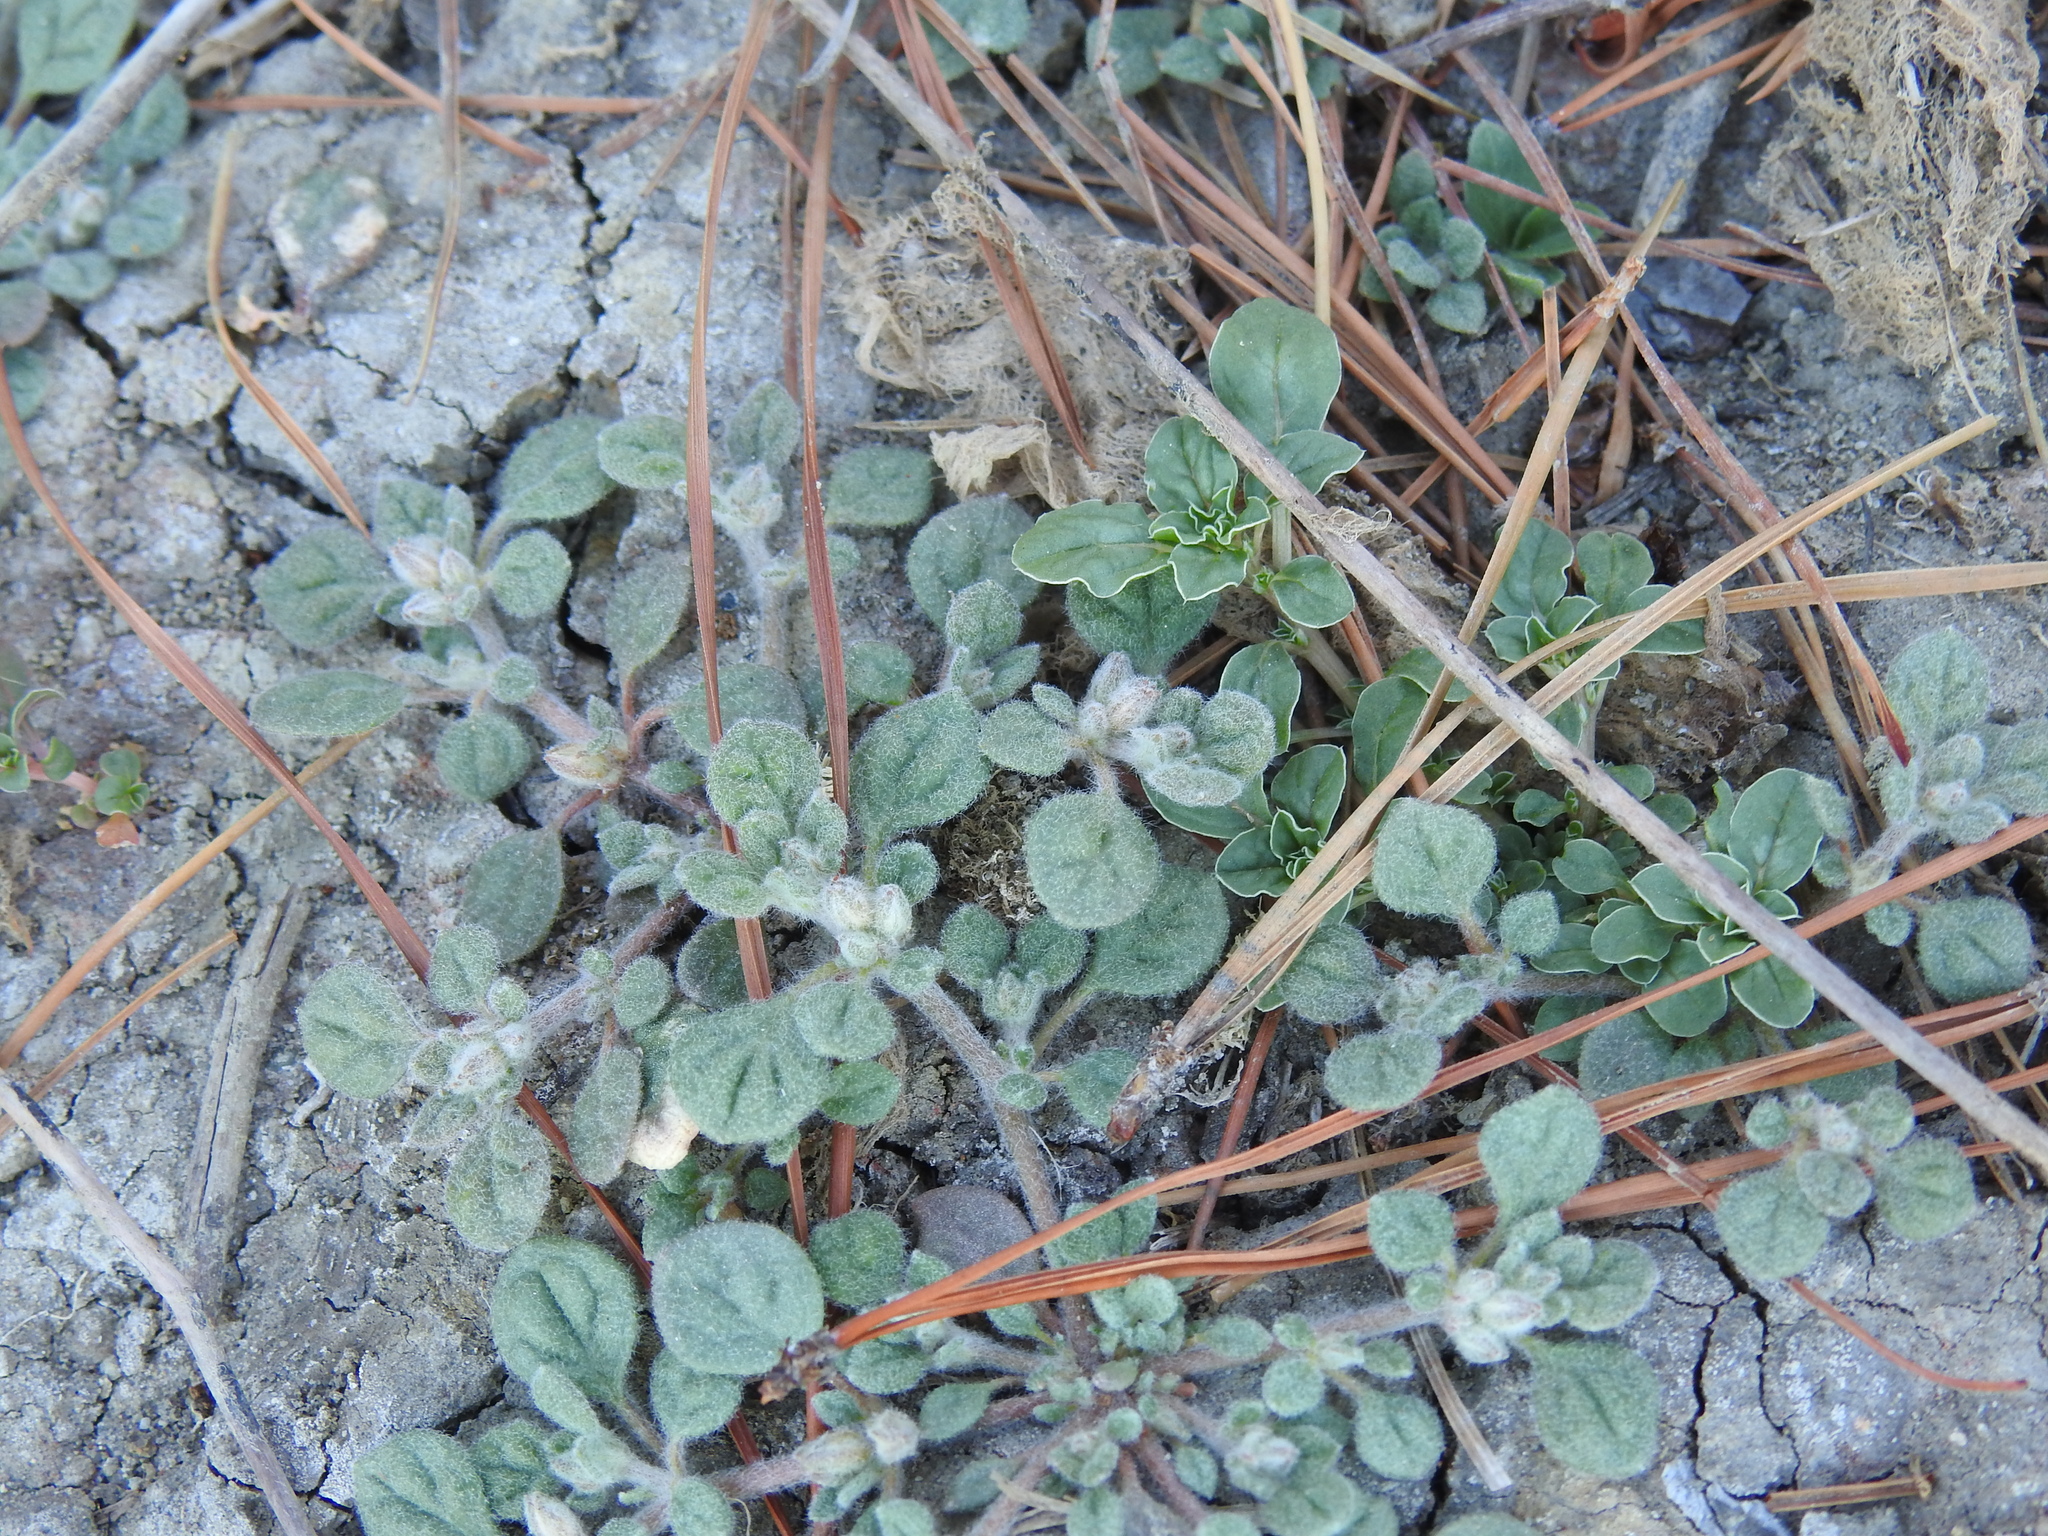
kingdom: Plantae
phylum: Tracheophyta
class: Magnoliopsida
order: Caryophyllales
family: Molluginaceae
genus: Glinus
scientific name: Glinus lotoides
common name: Lotus sweetjuice
